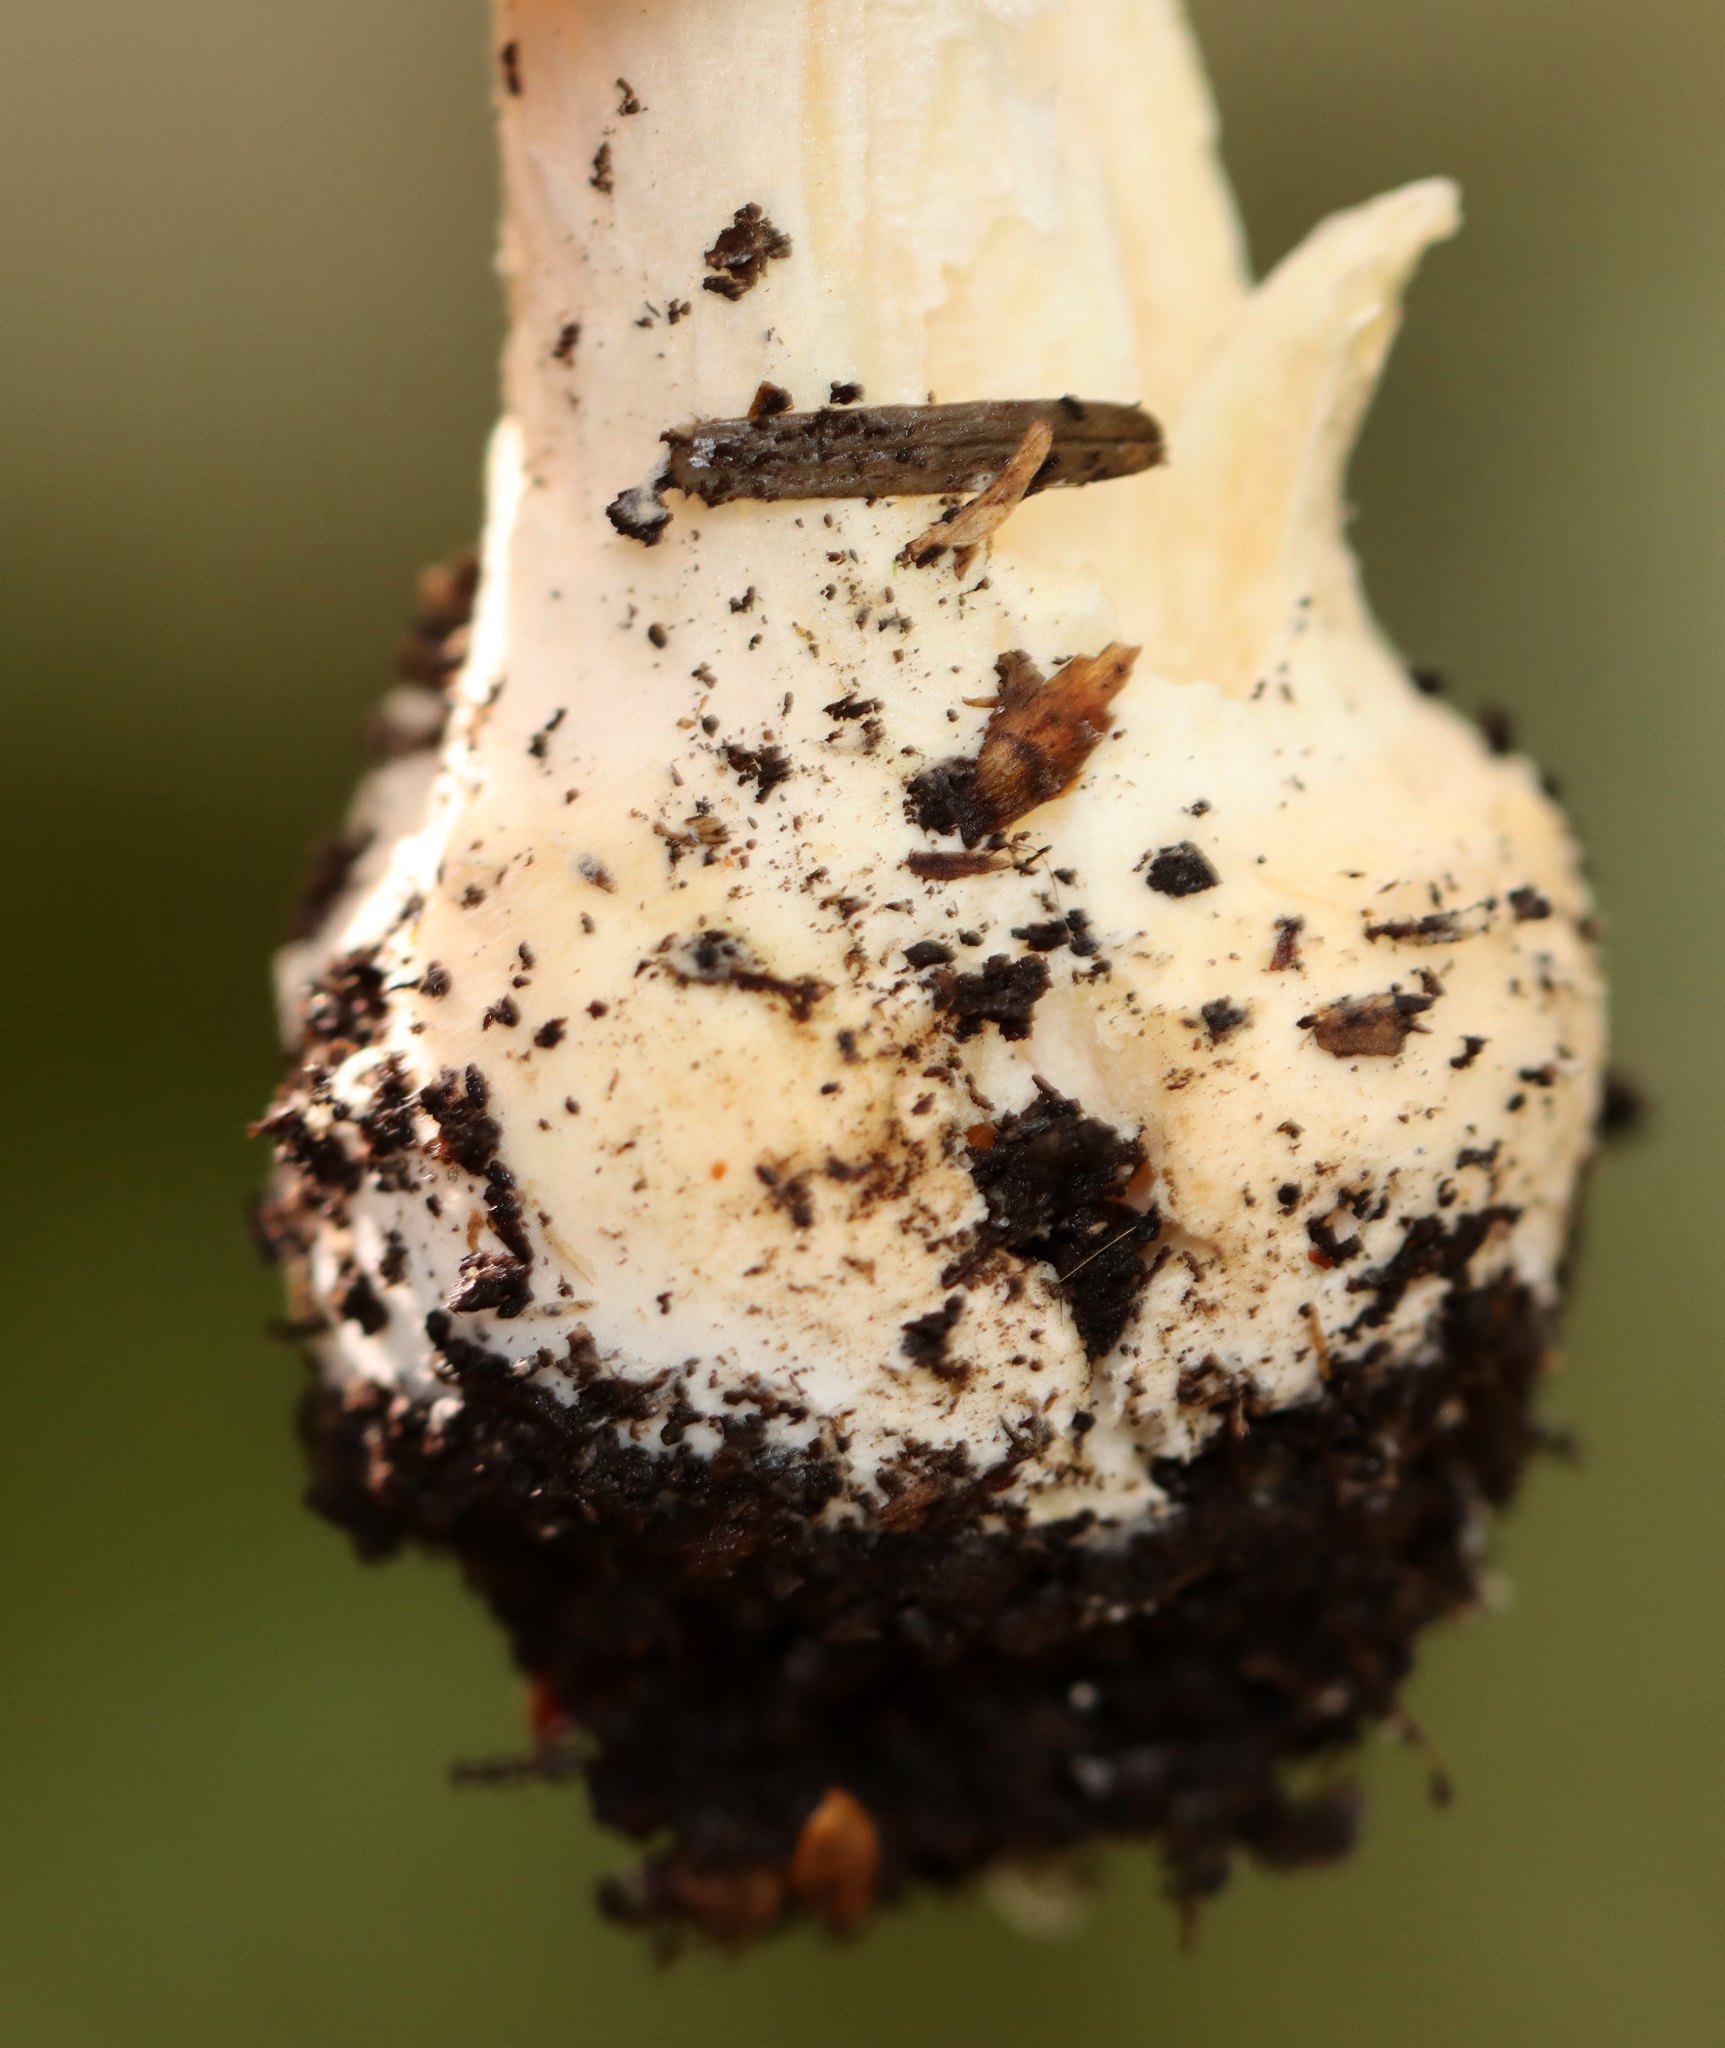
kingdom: Fungi
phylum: Basidiomycota
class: Agaricomycetes
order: Agaricales
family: Amanitaceae
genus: Amanita
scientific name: Amanita crenulata
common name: Poison champagne amanita
